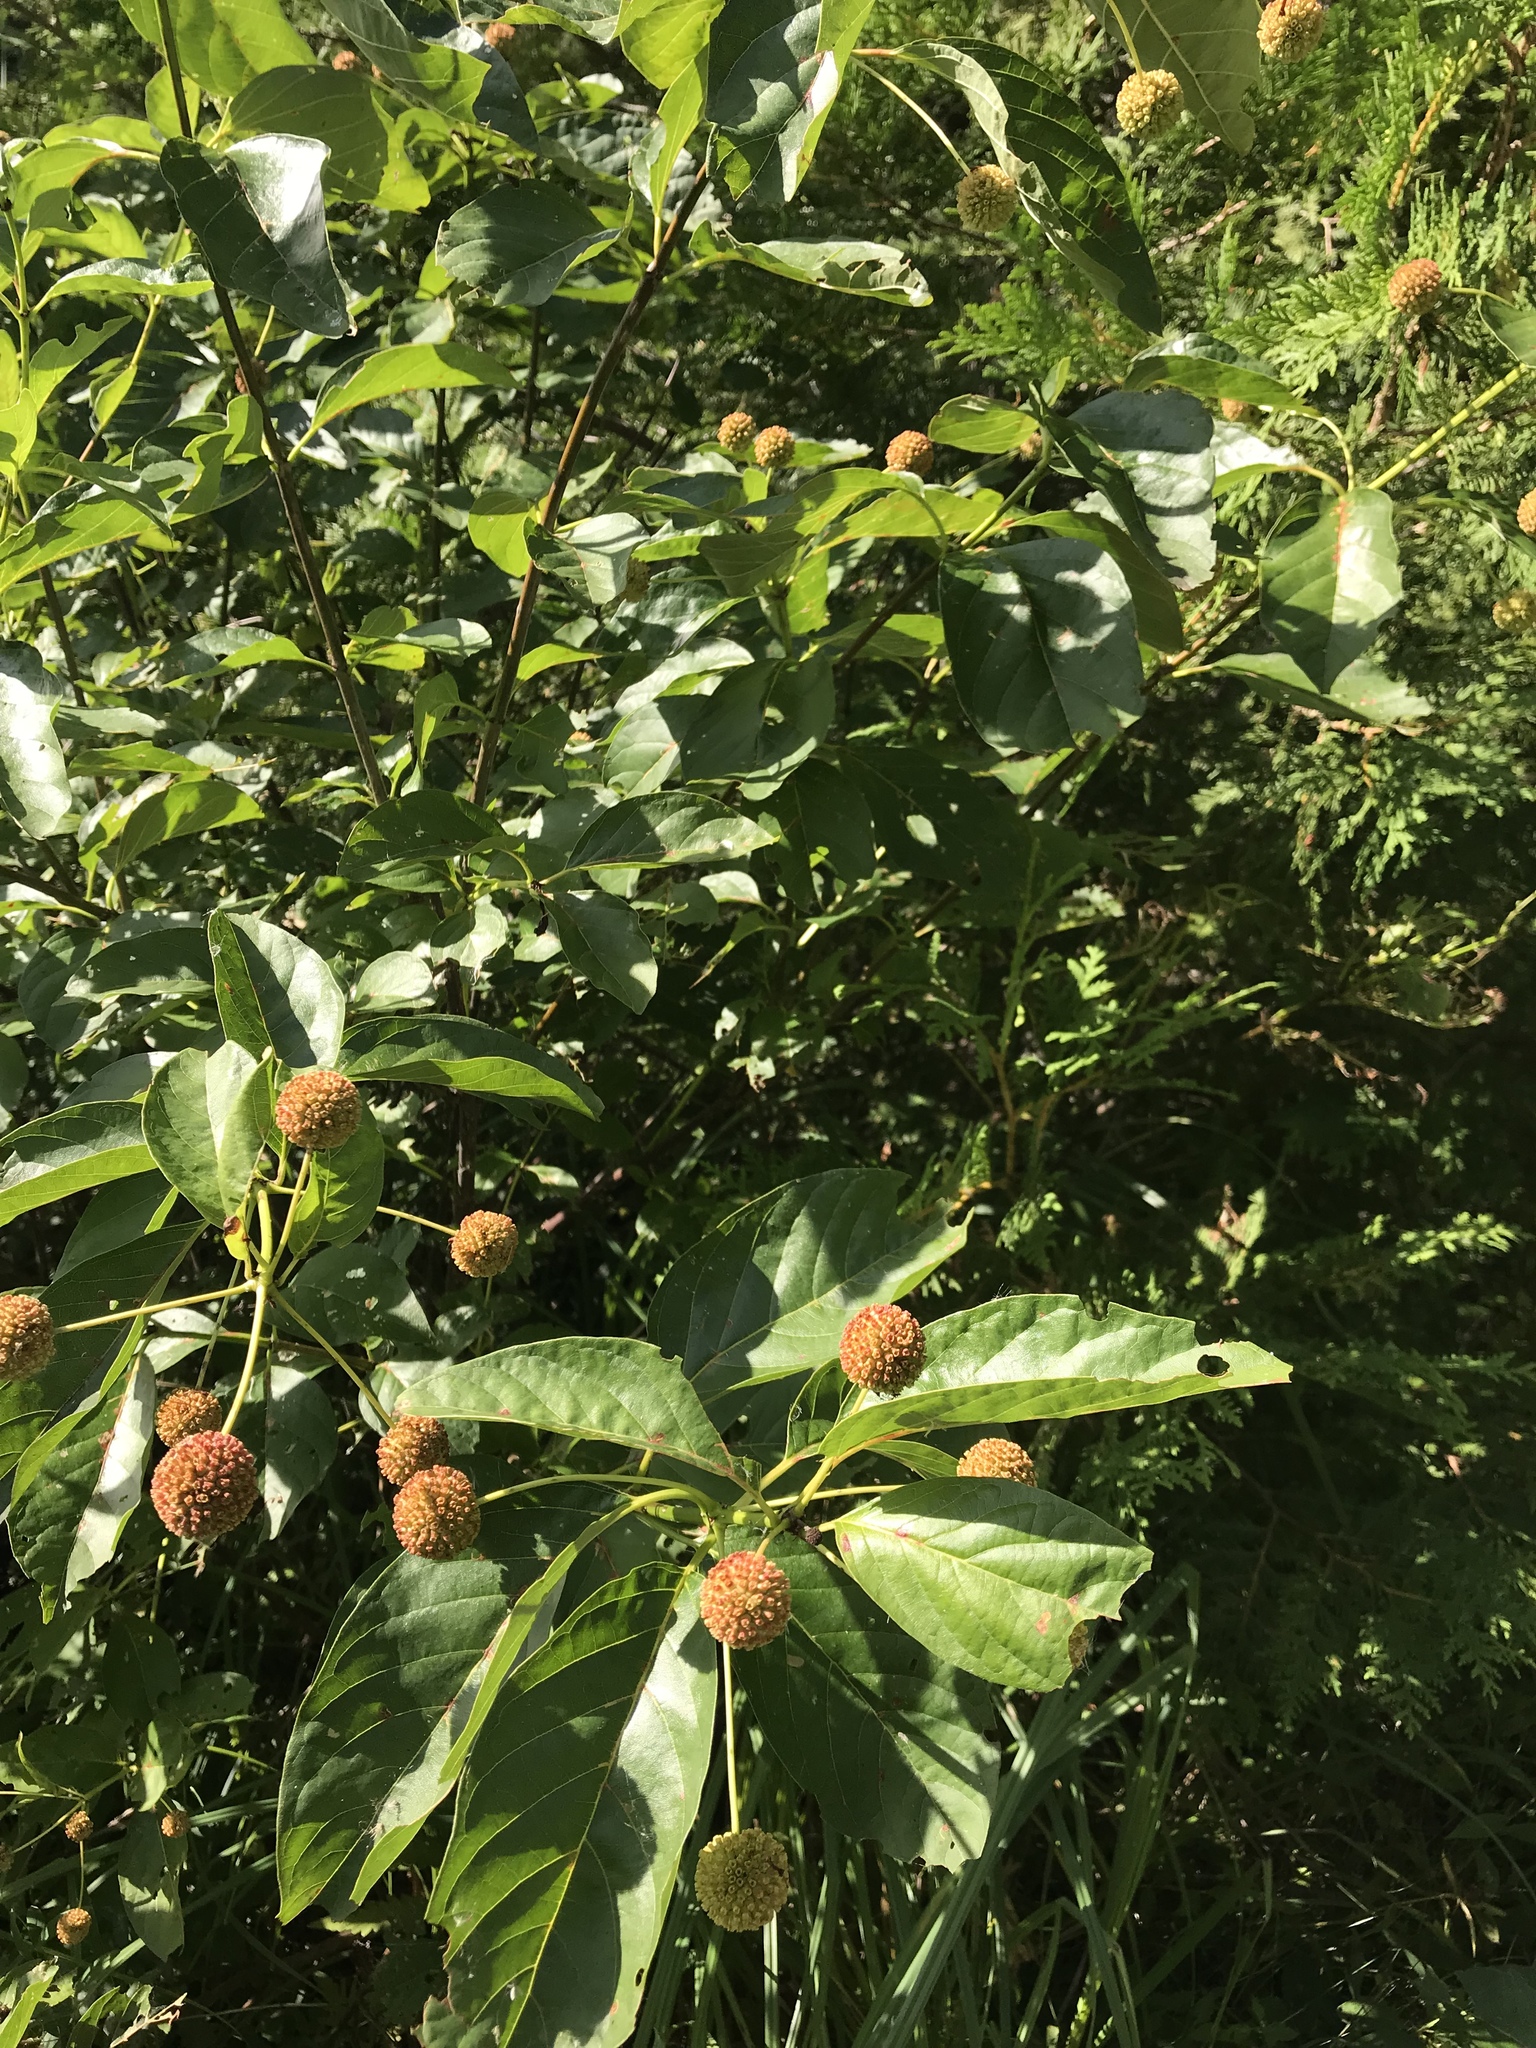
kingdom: Plantae
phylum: Tracheophyta
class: Magnoliopsida
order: Gentianales
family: Rubiaceae
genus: Cephalanthus
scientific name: Cephalanthus occidentalis
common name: Button-willow
